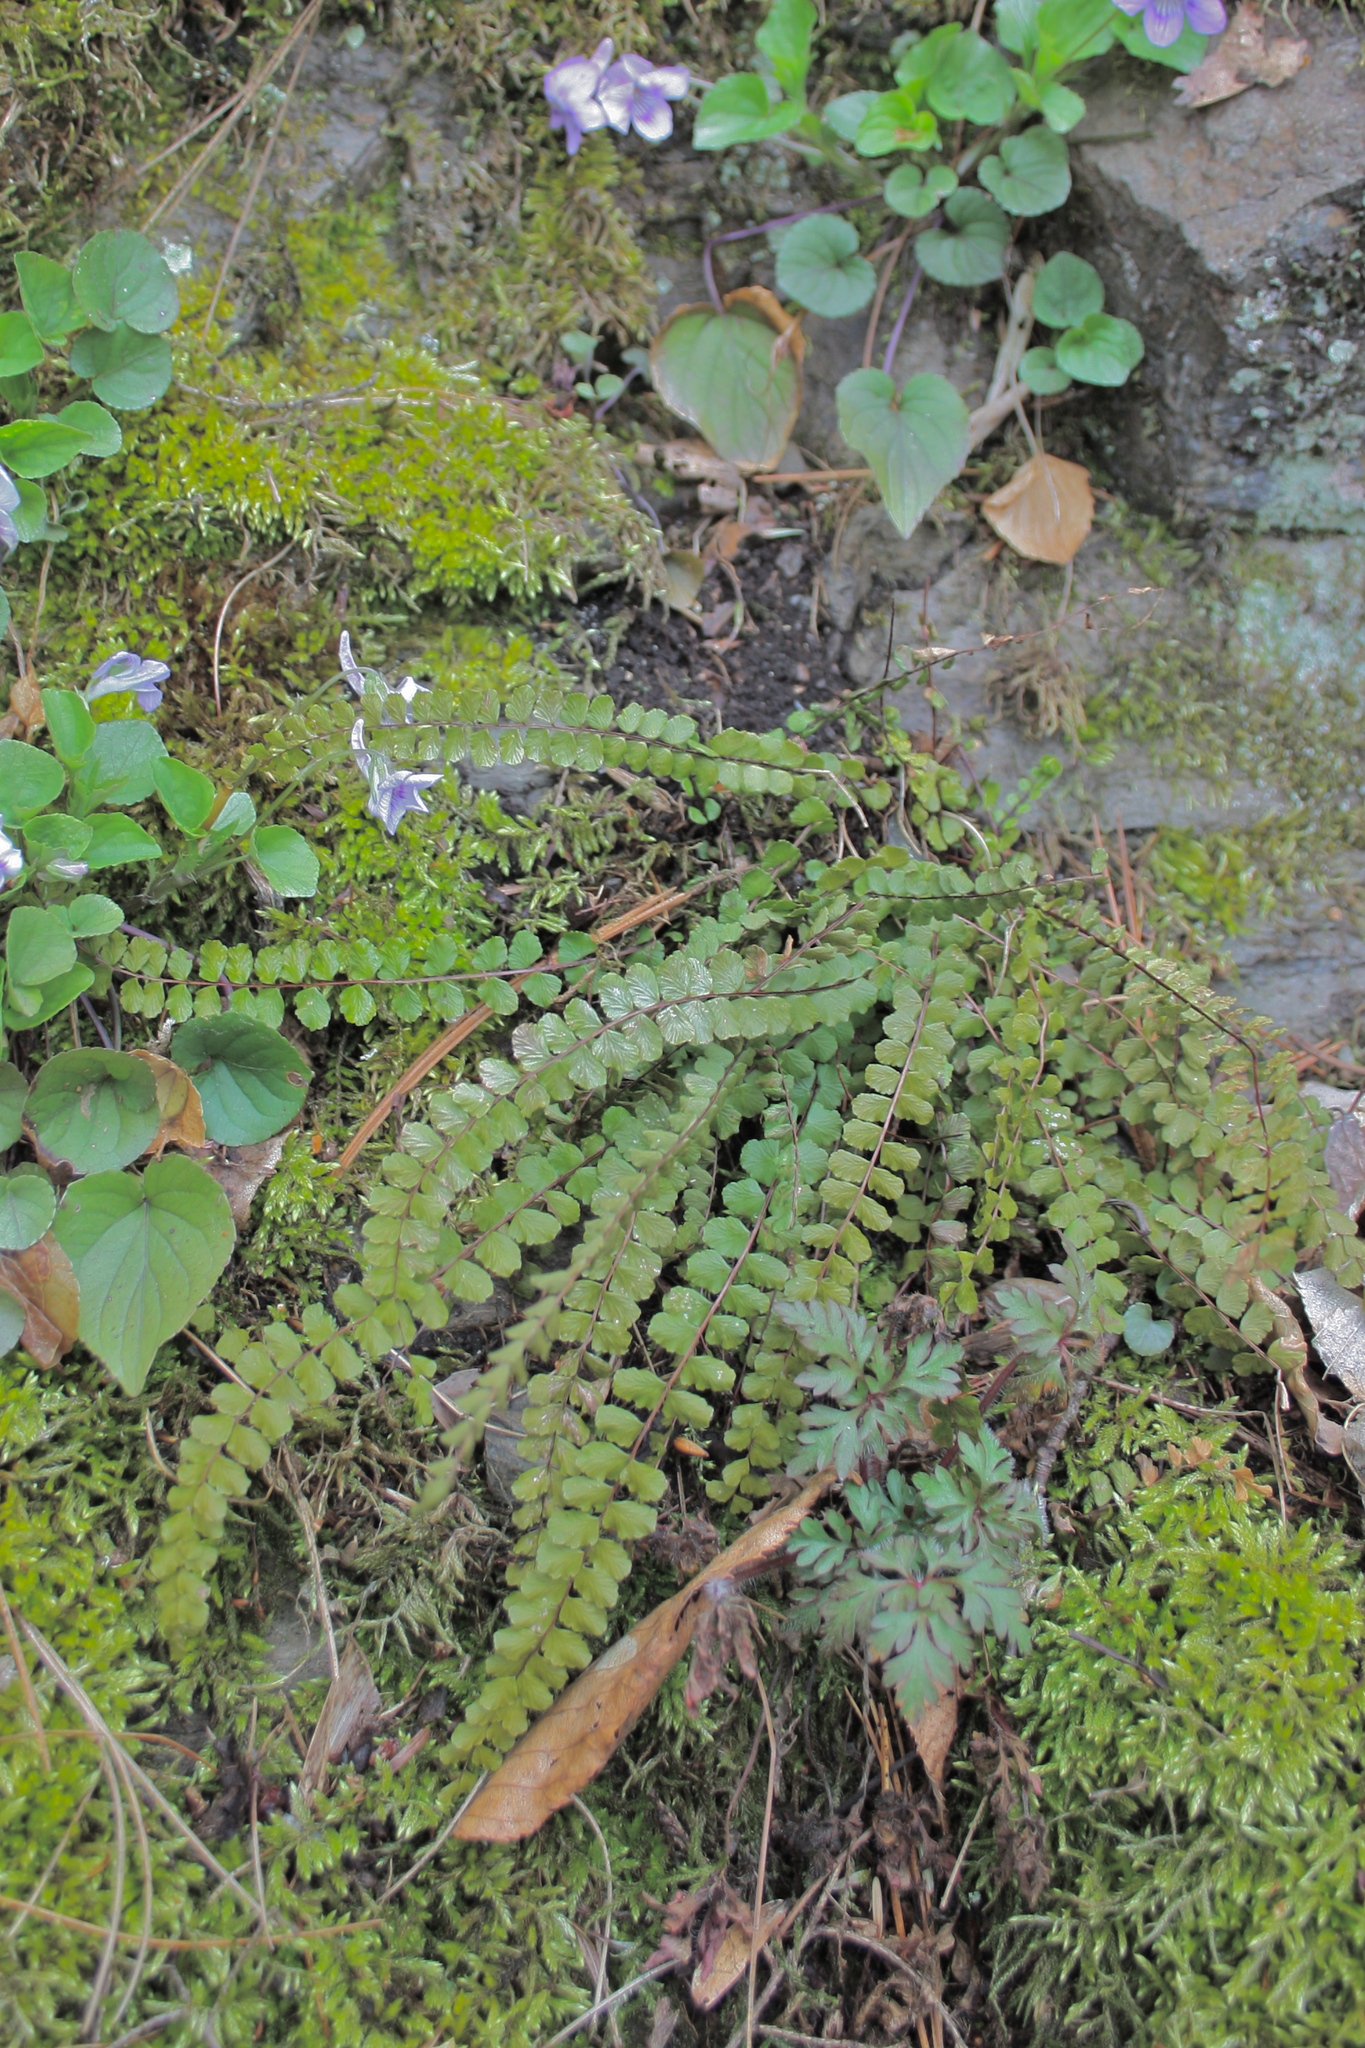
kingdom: Plantae
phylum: Tracheophyta
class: Polypodiopsida
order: Polypodiales
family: Aspleniaceae
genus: Asplenium
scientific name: Asplenium trichomanes
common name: Maidenhair spleenwort
